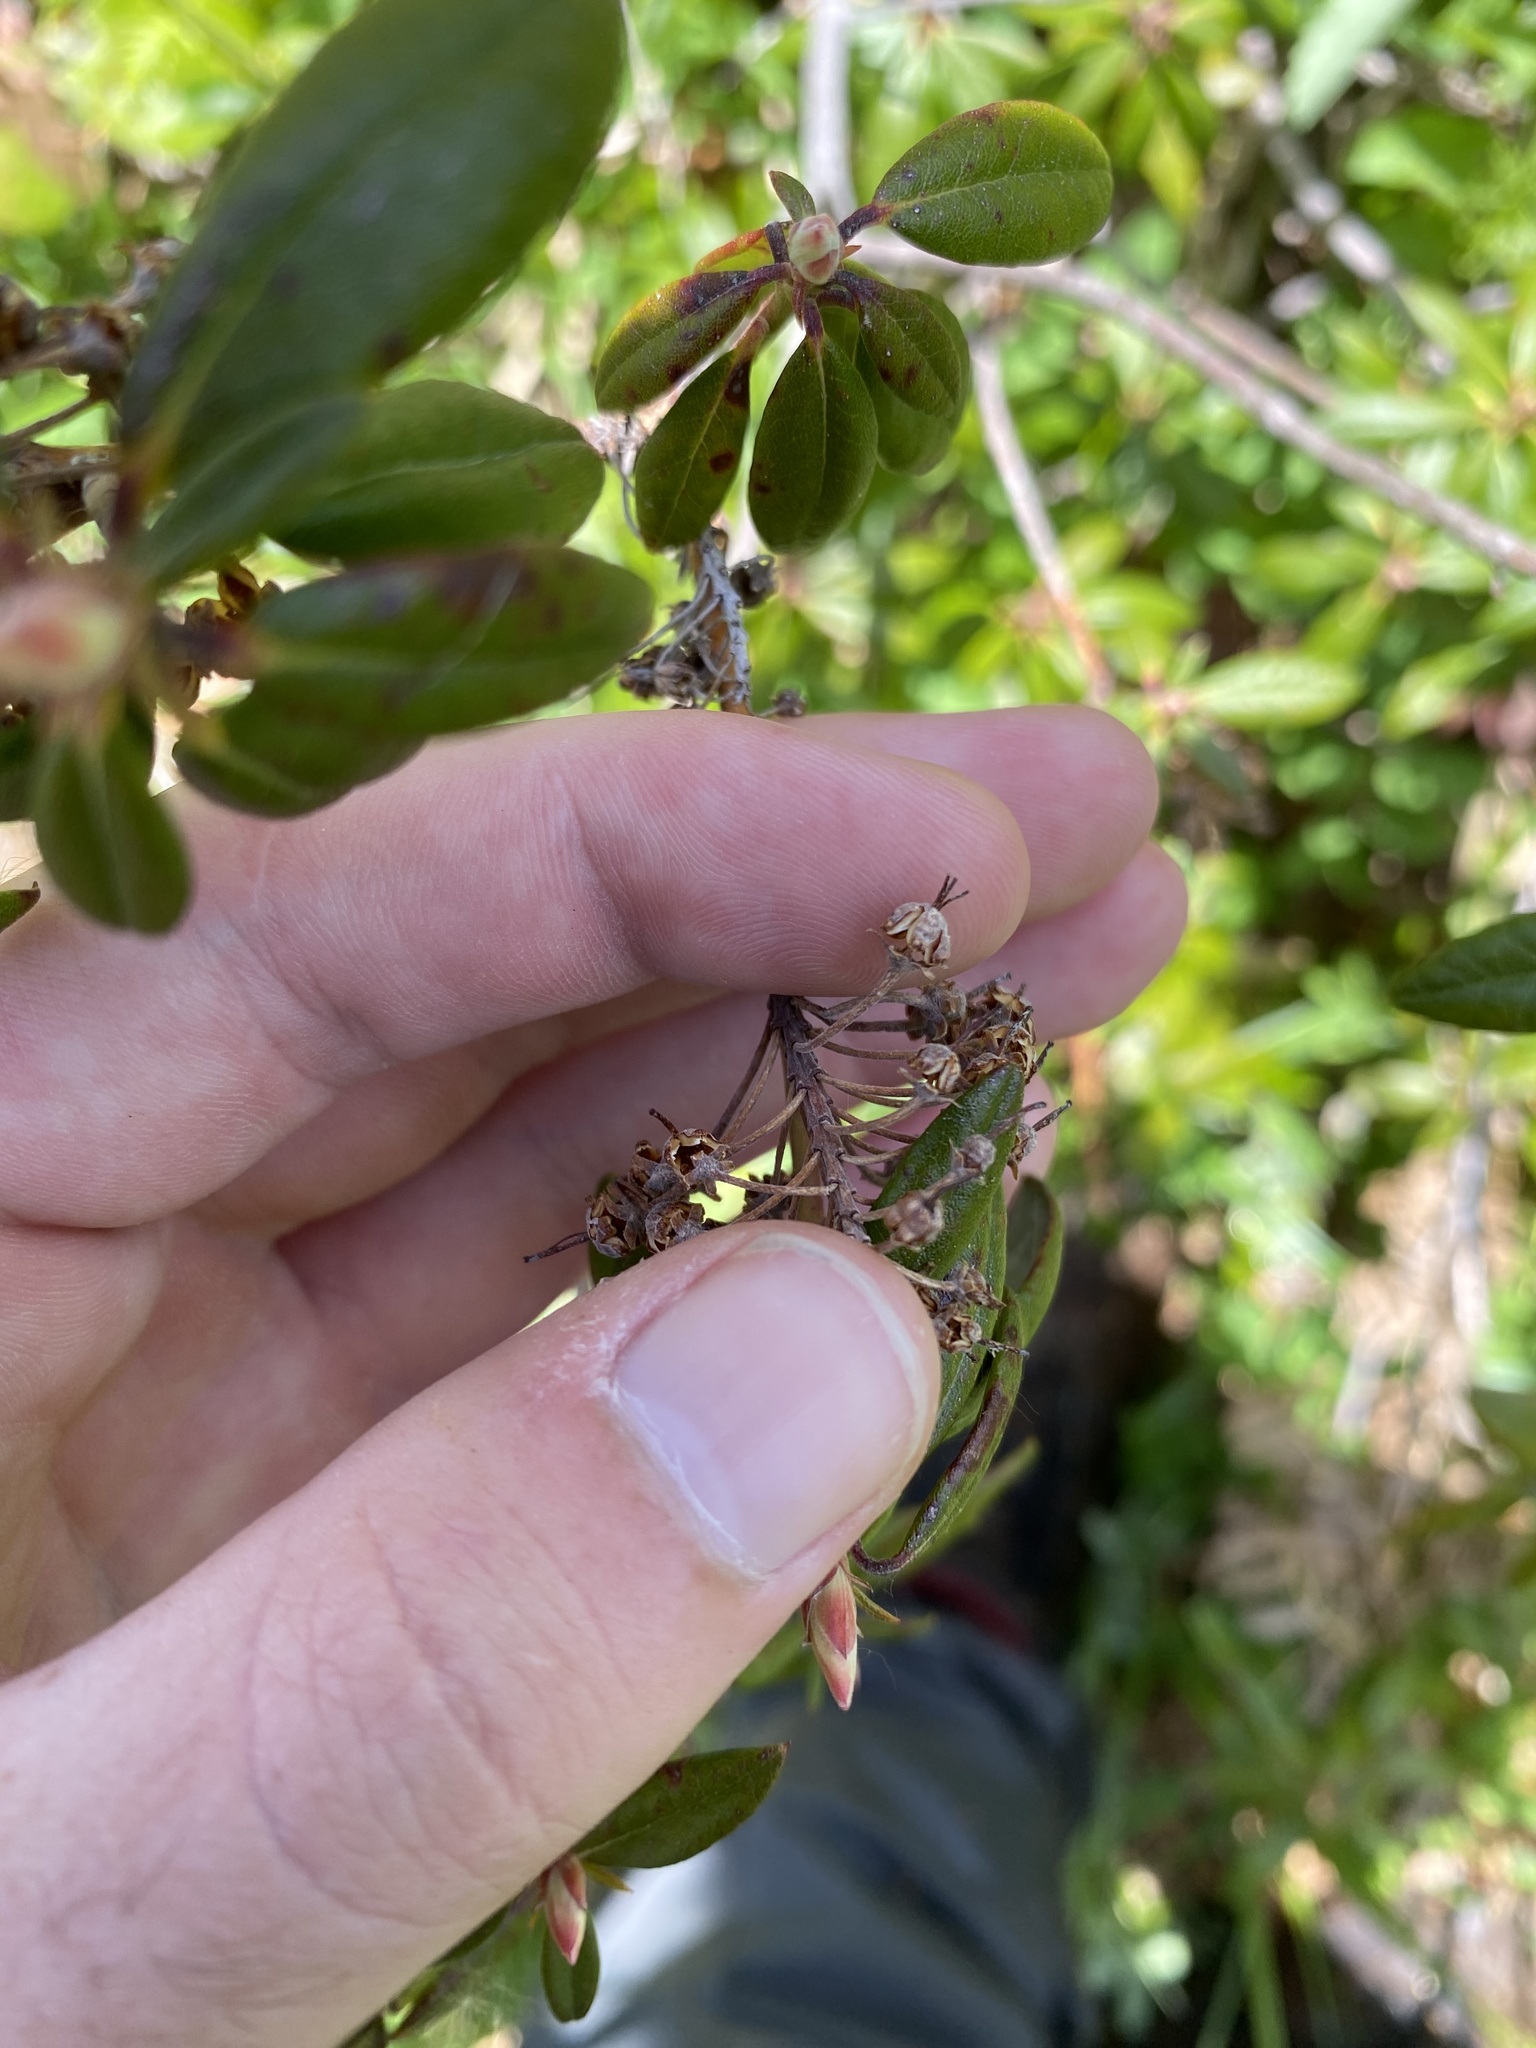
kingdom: Plantae
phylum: Tracheophyta
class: Magnoliopsida
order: Ericales
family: Ericaceae
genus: Rhododendron
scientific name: Rhododendron columbianum
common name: Western labrador tea
